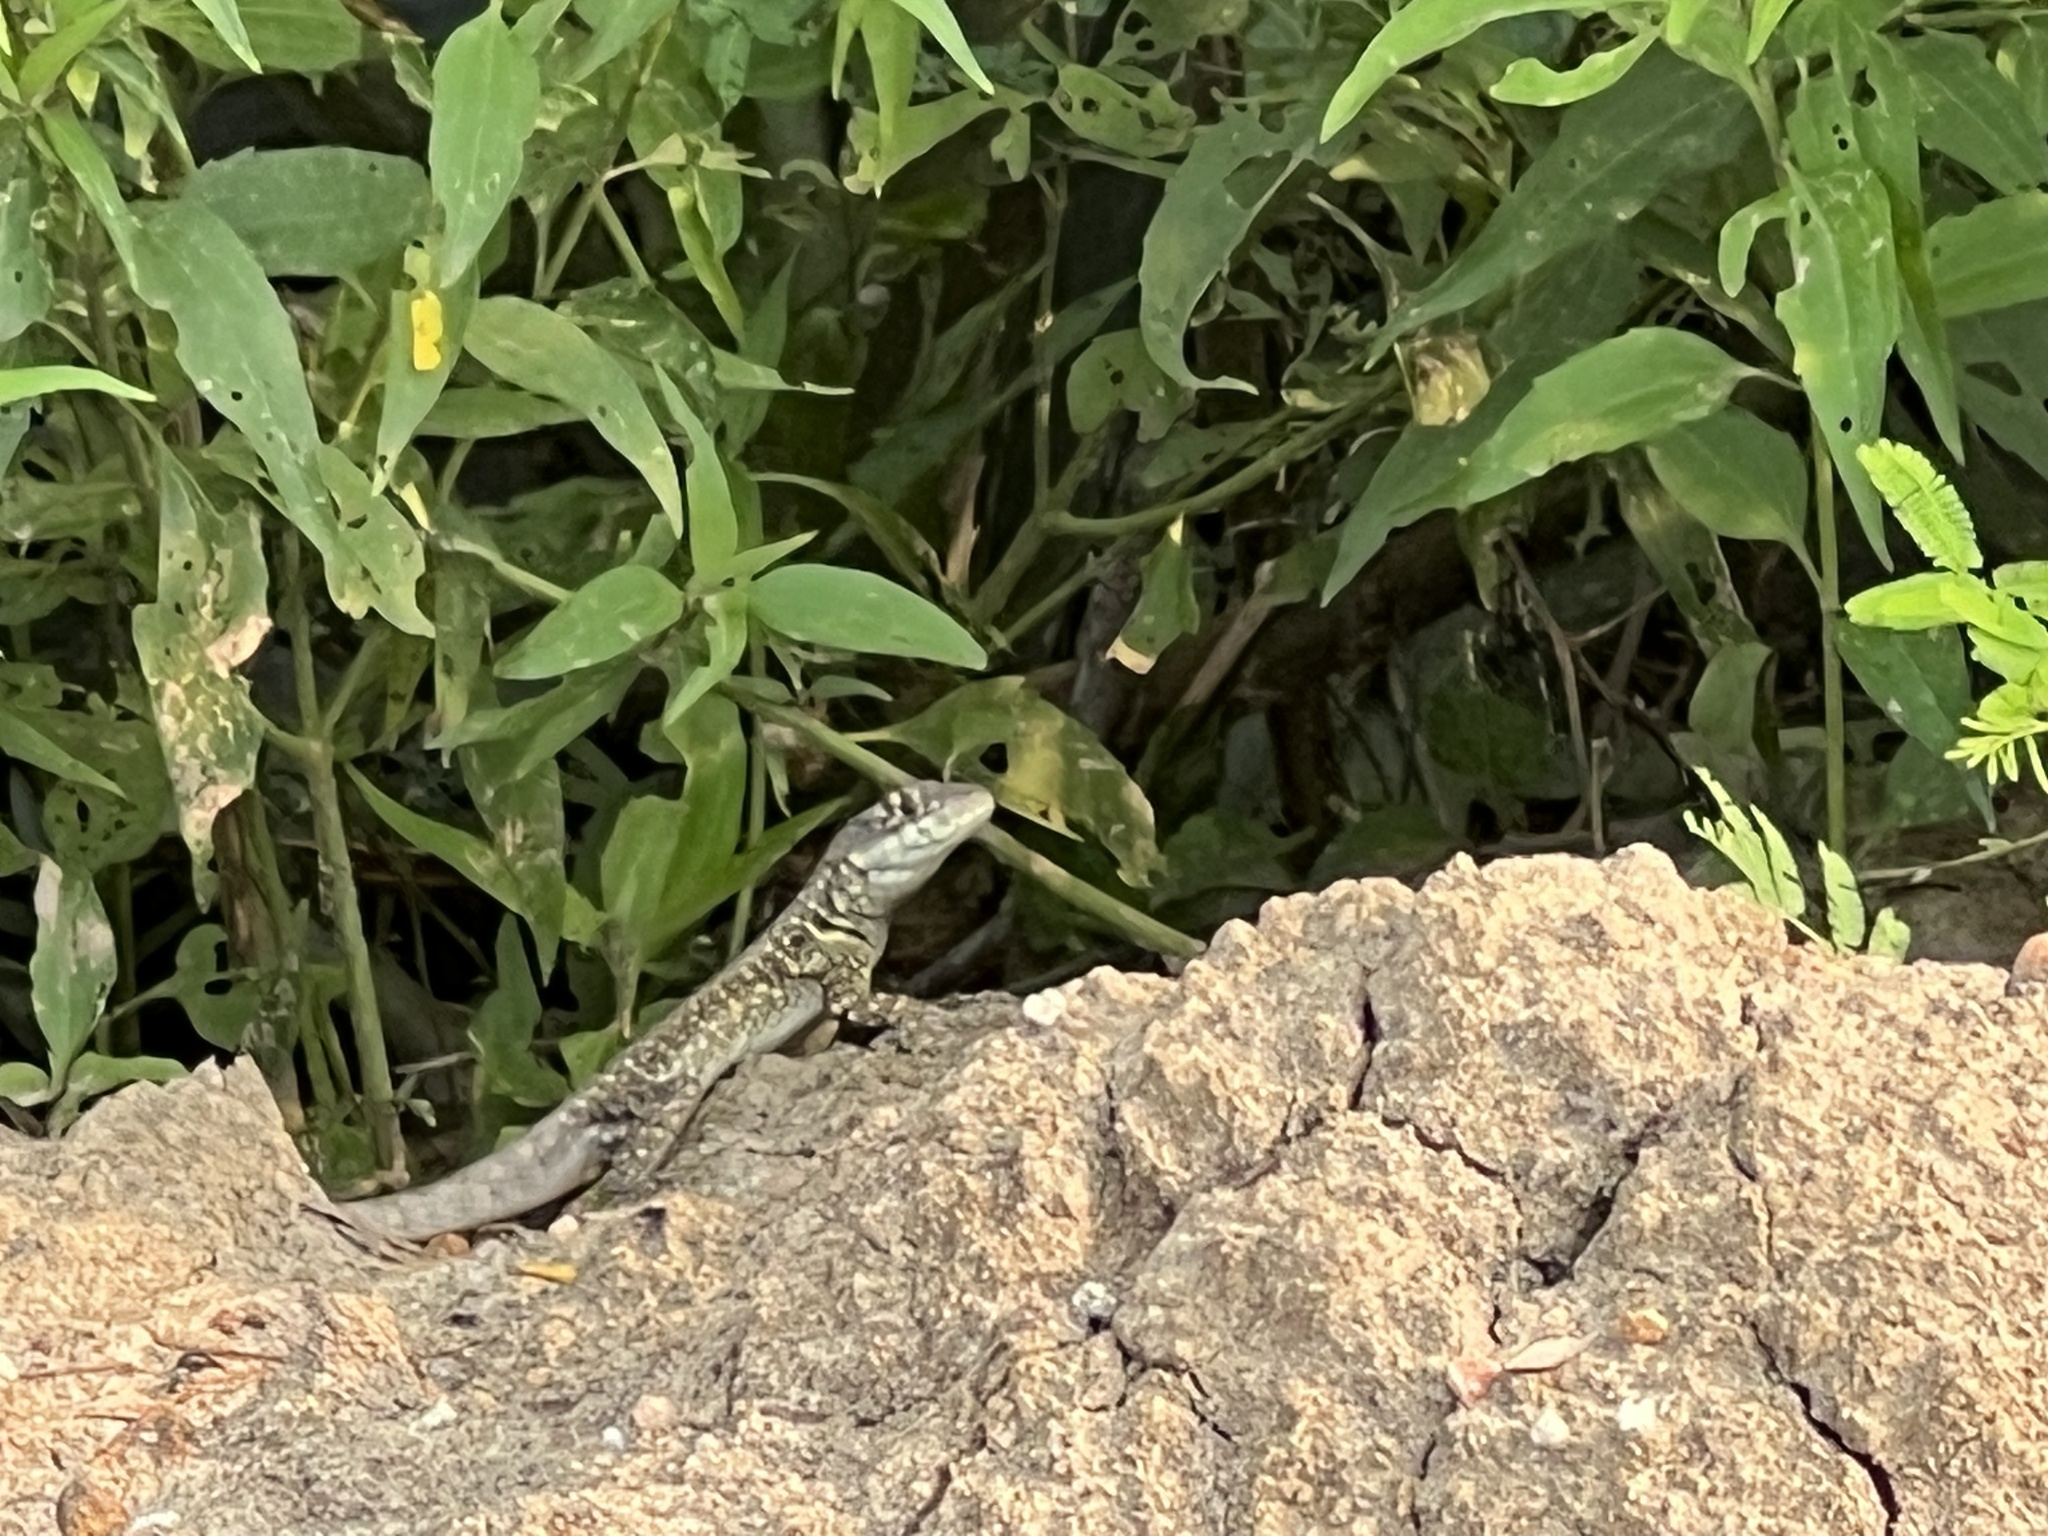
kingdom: Animalia
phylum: Chordata
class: Squamata
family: Tropiduridae
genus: Tropidurus
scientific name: Tropidurus catalanensis
